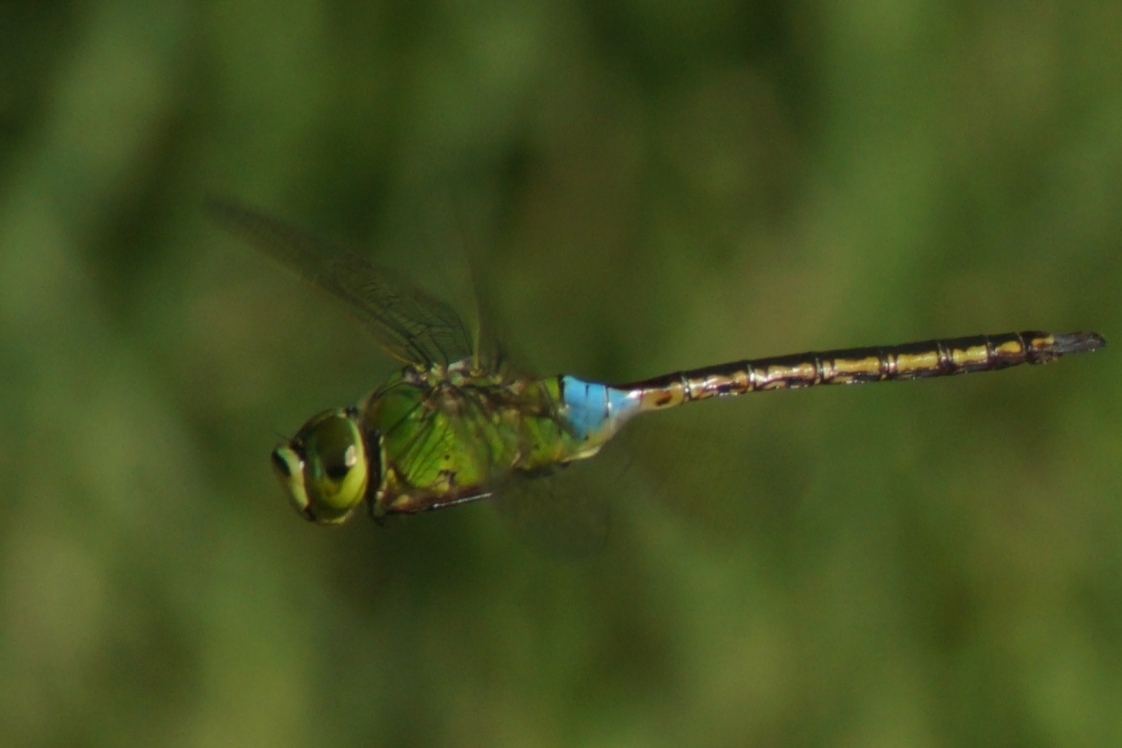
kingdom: Animalia
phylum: Arthropoda
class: Insecta
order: Odonata
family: Aeshnidae
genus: Anax
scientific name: Anax julius
